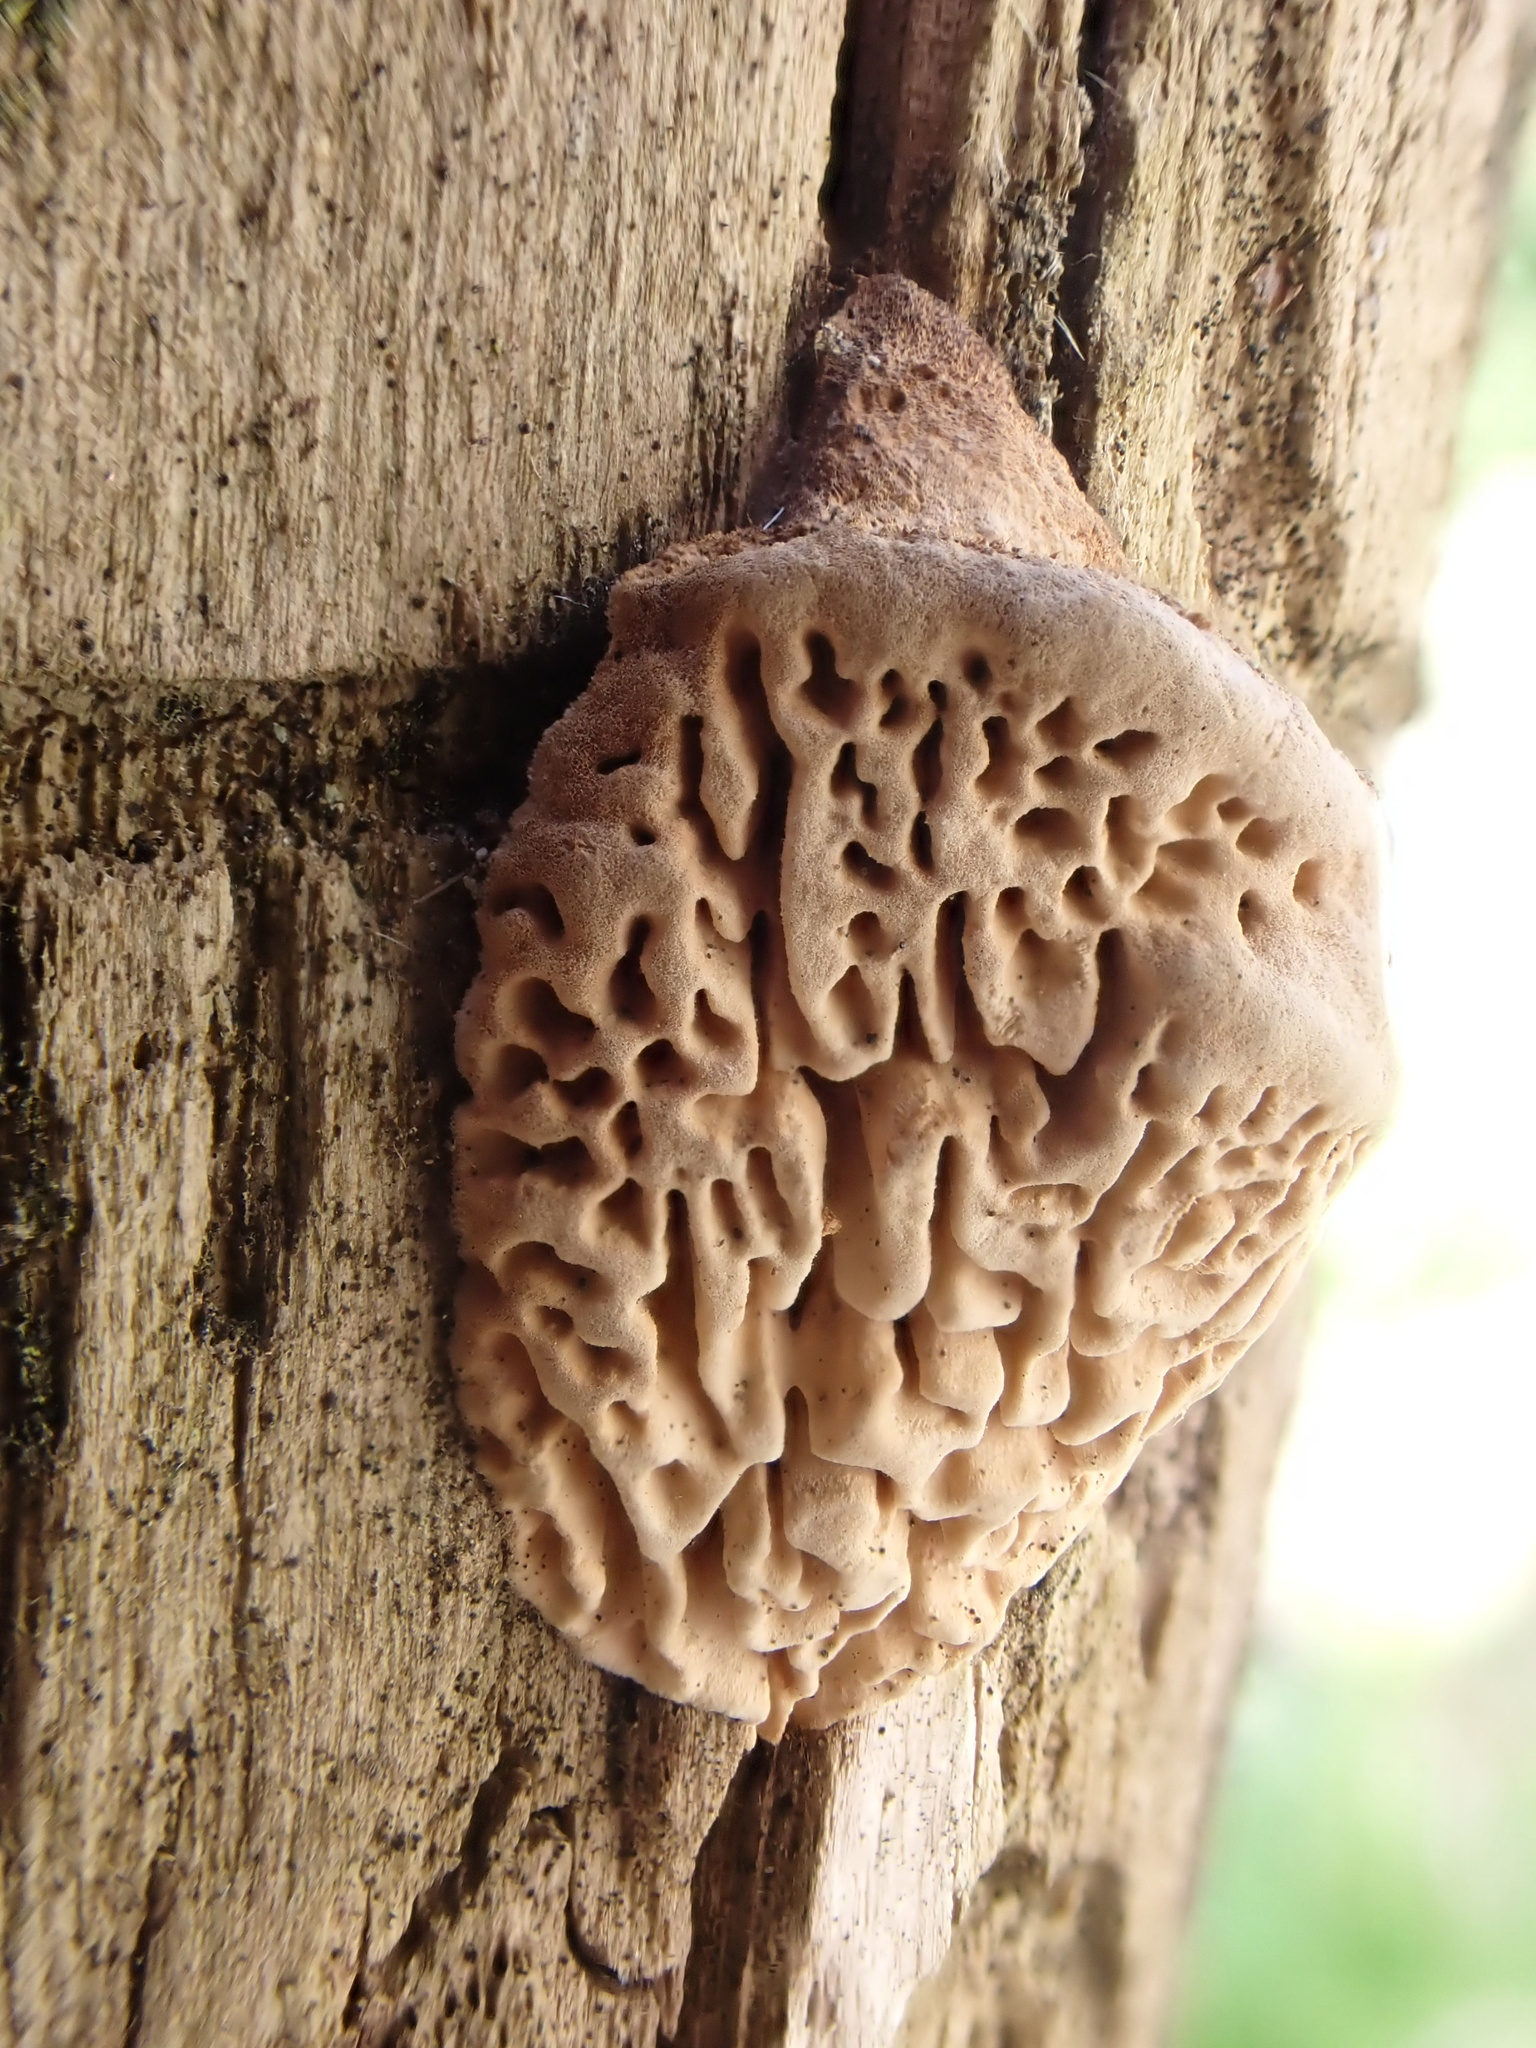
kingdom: Fungi
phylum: Basidiomycota
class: Agaricomycetes
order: Polyporales
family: Fomitopsidaceae
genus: Fomitopsis
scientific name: Fomitopsis
